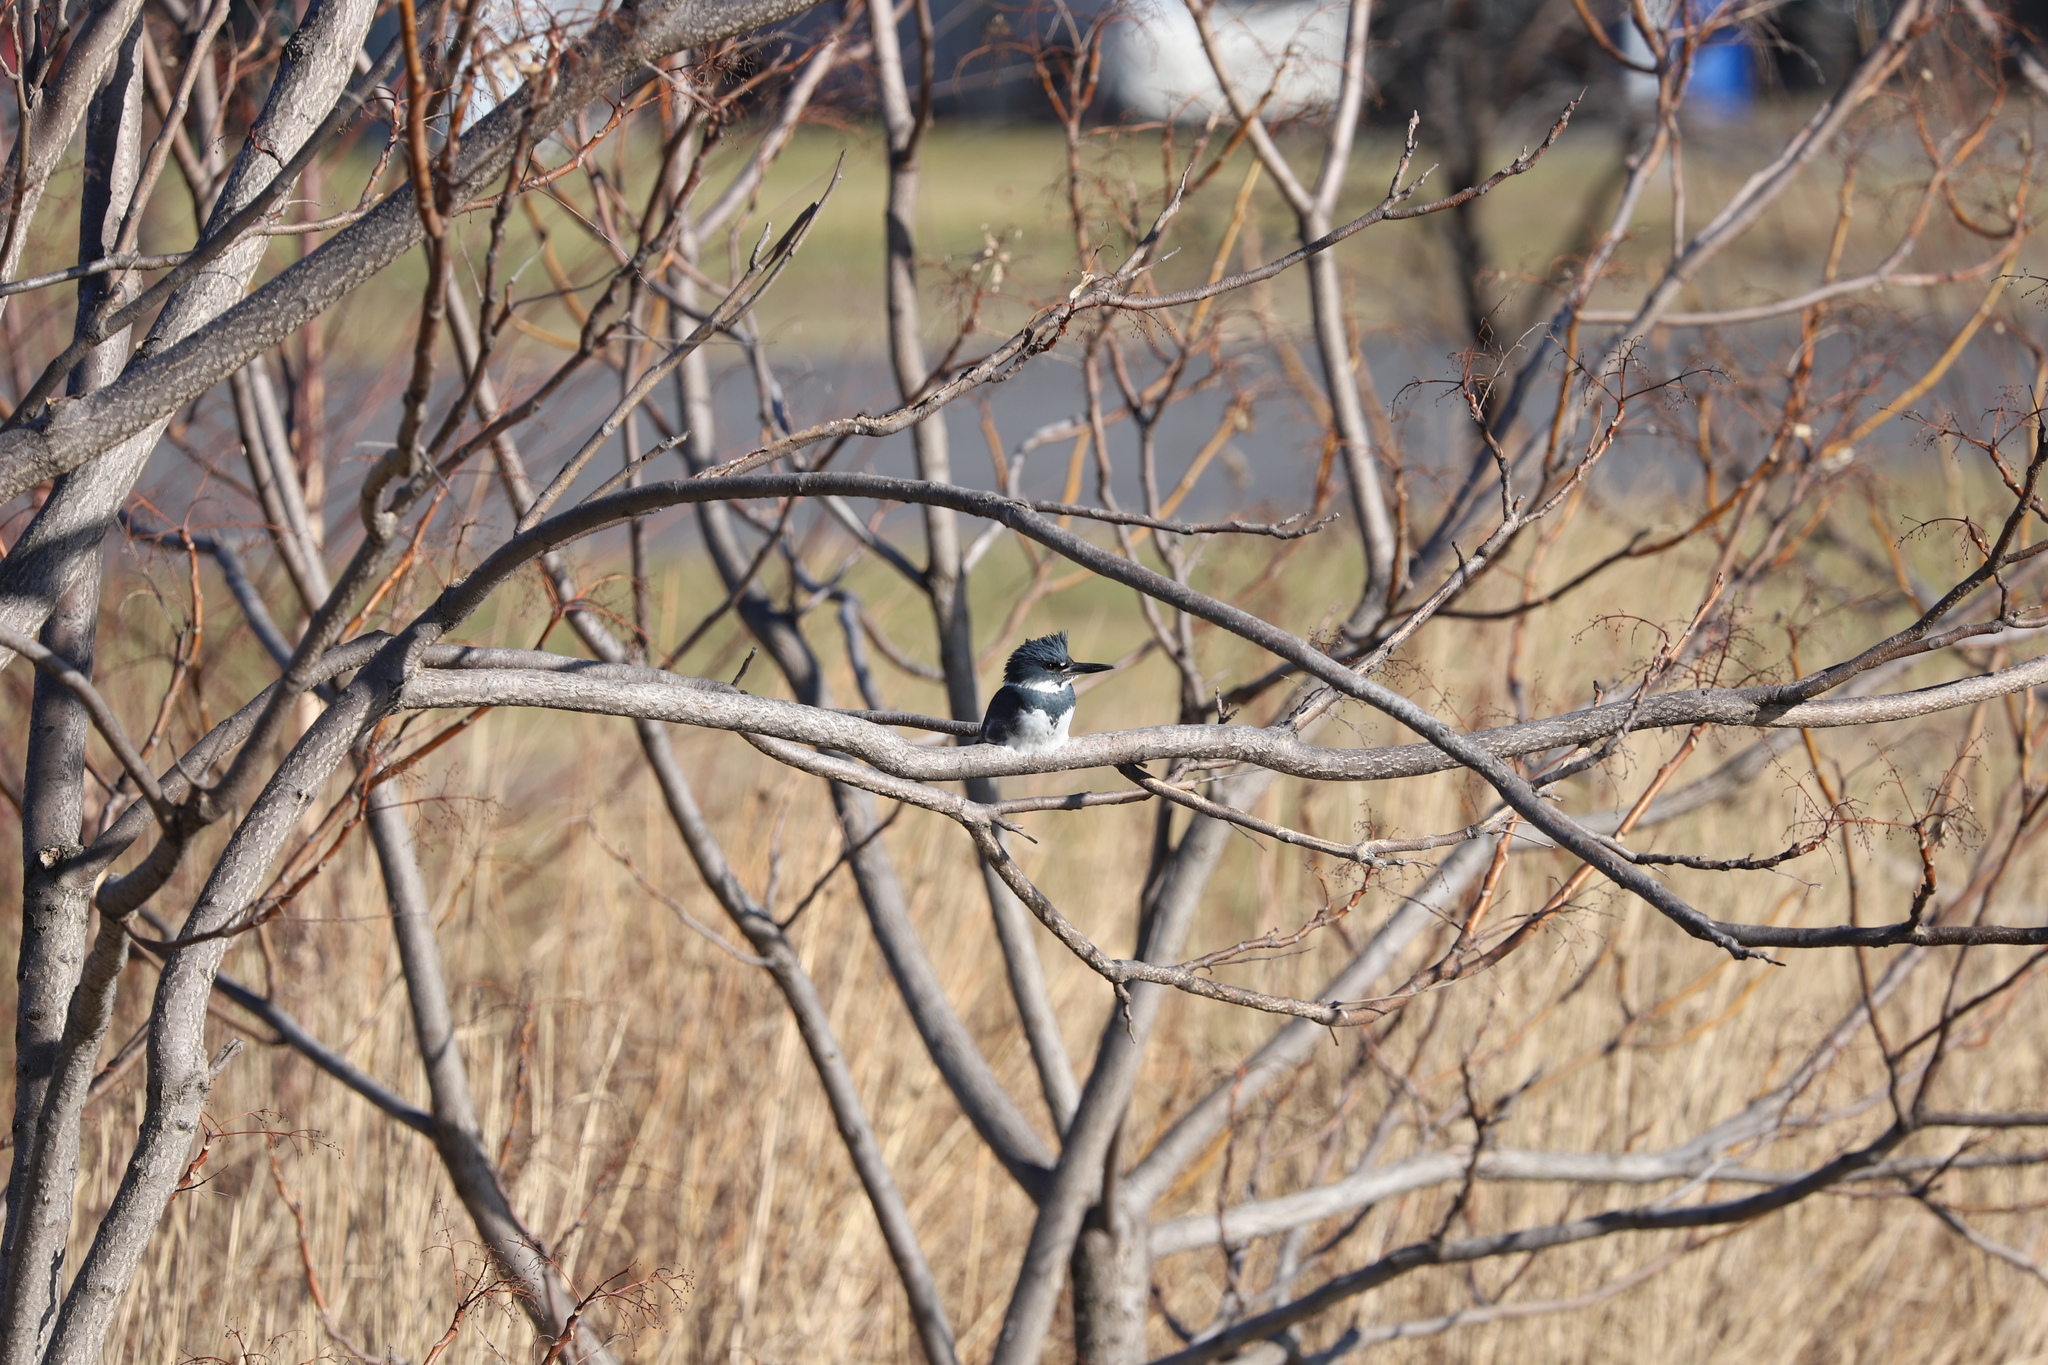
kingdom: Animalia
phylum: Chordata
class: Aves
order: Coraciiformes
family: Alcedinidae
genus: Megaceryle
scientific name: Megaceryle alcyon
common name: Belted kingfisher
